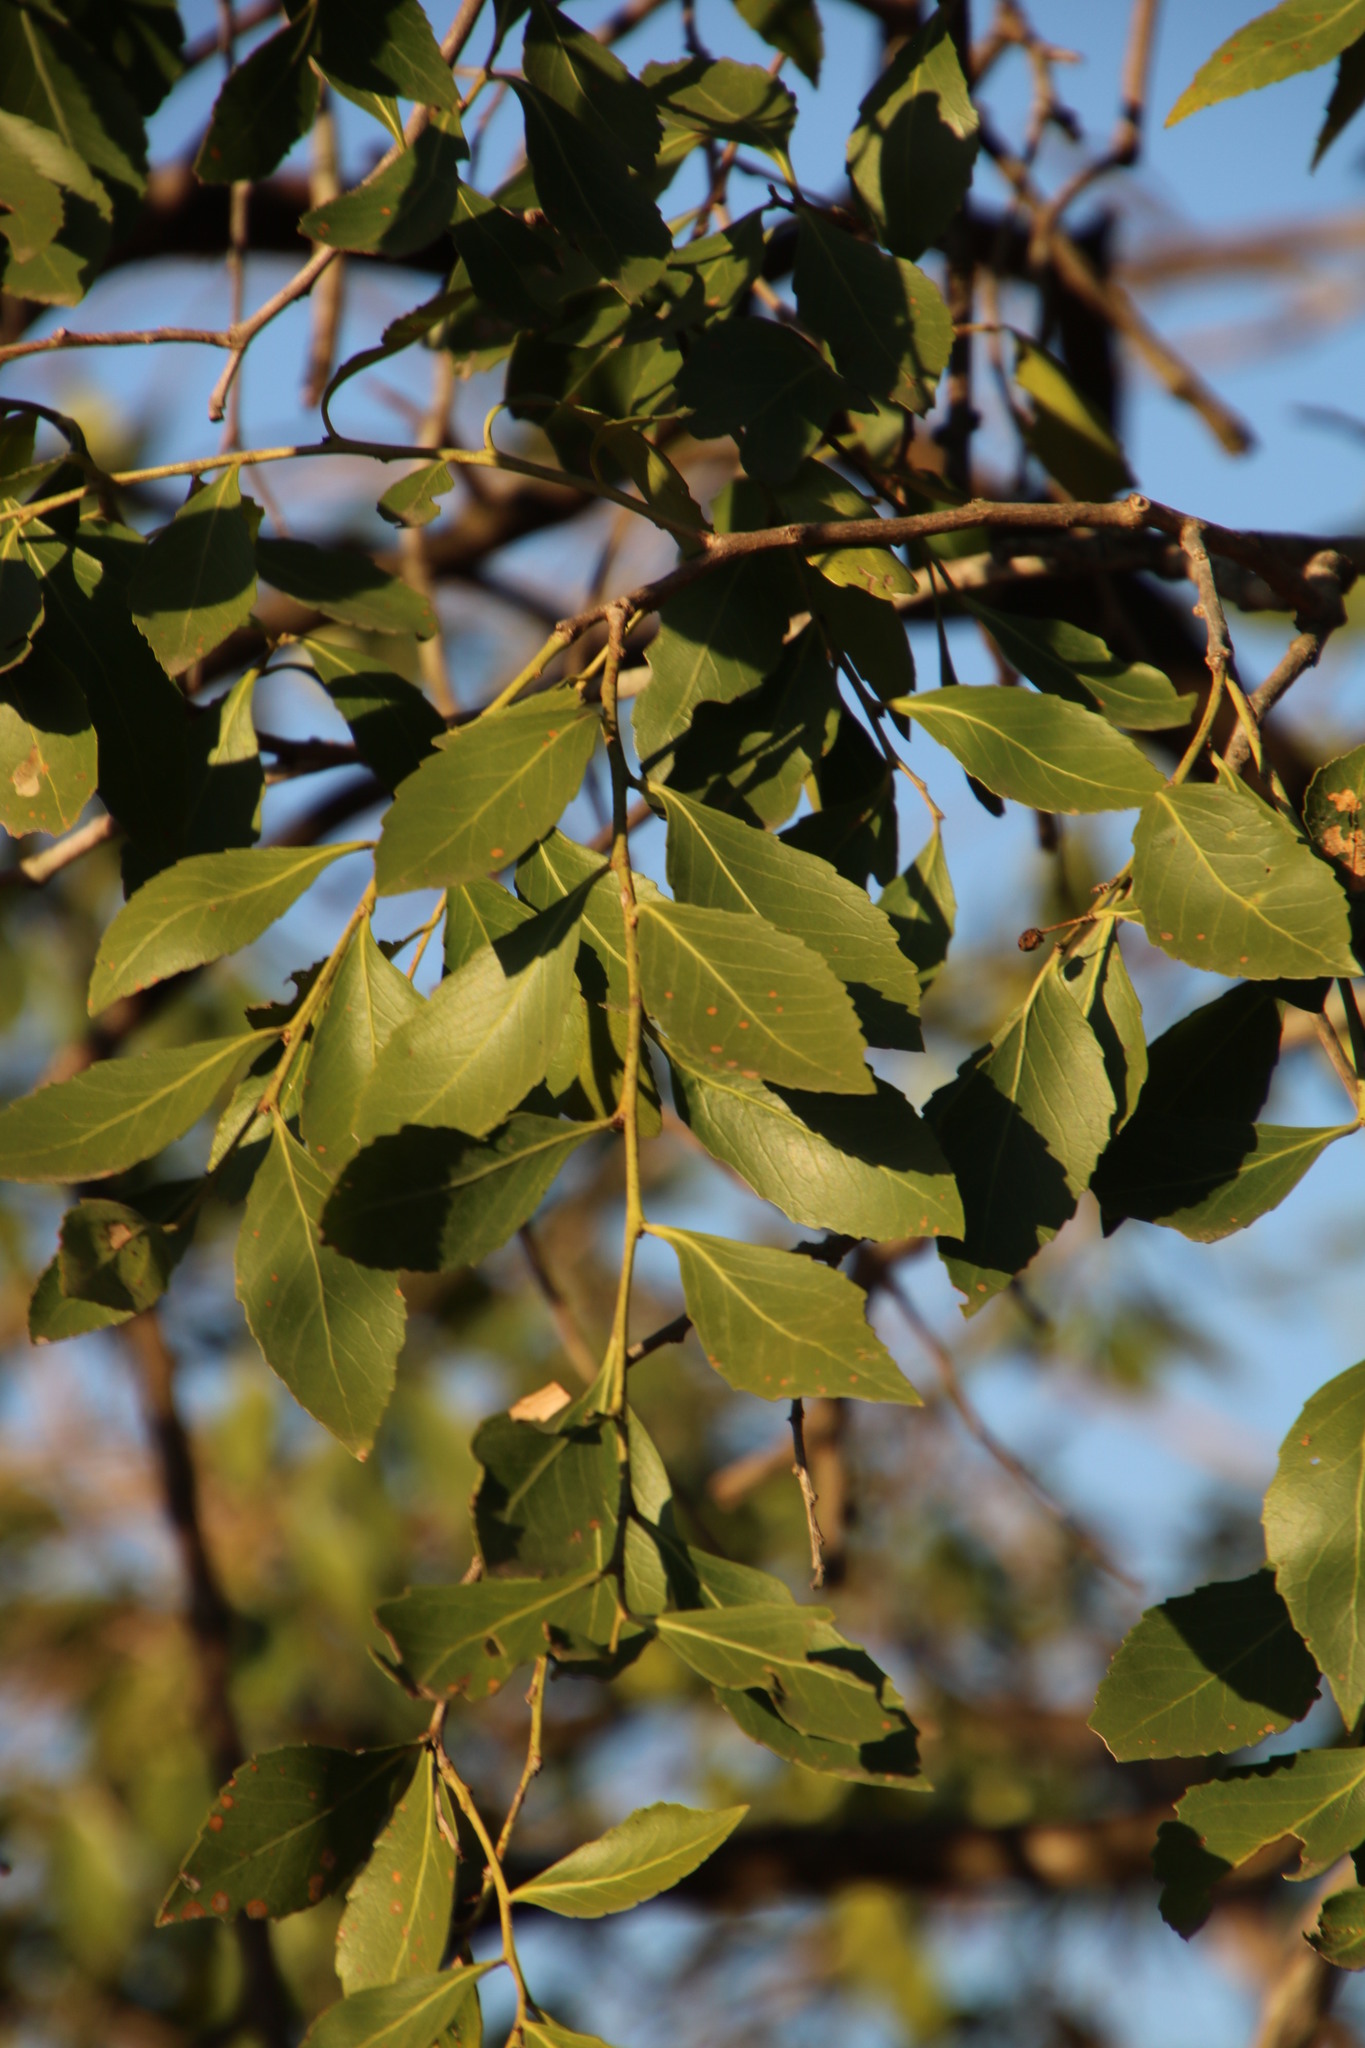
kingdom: Plantae
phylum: Tracheophyta
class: Magnoliopsida
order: Celastrales
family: Celastraceae
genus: Gymnosporia
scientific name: Gymnosporia undata
